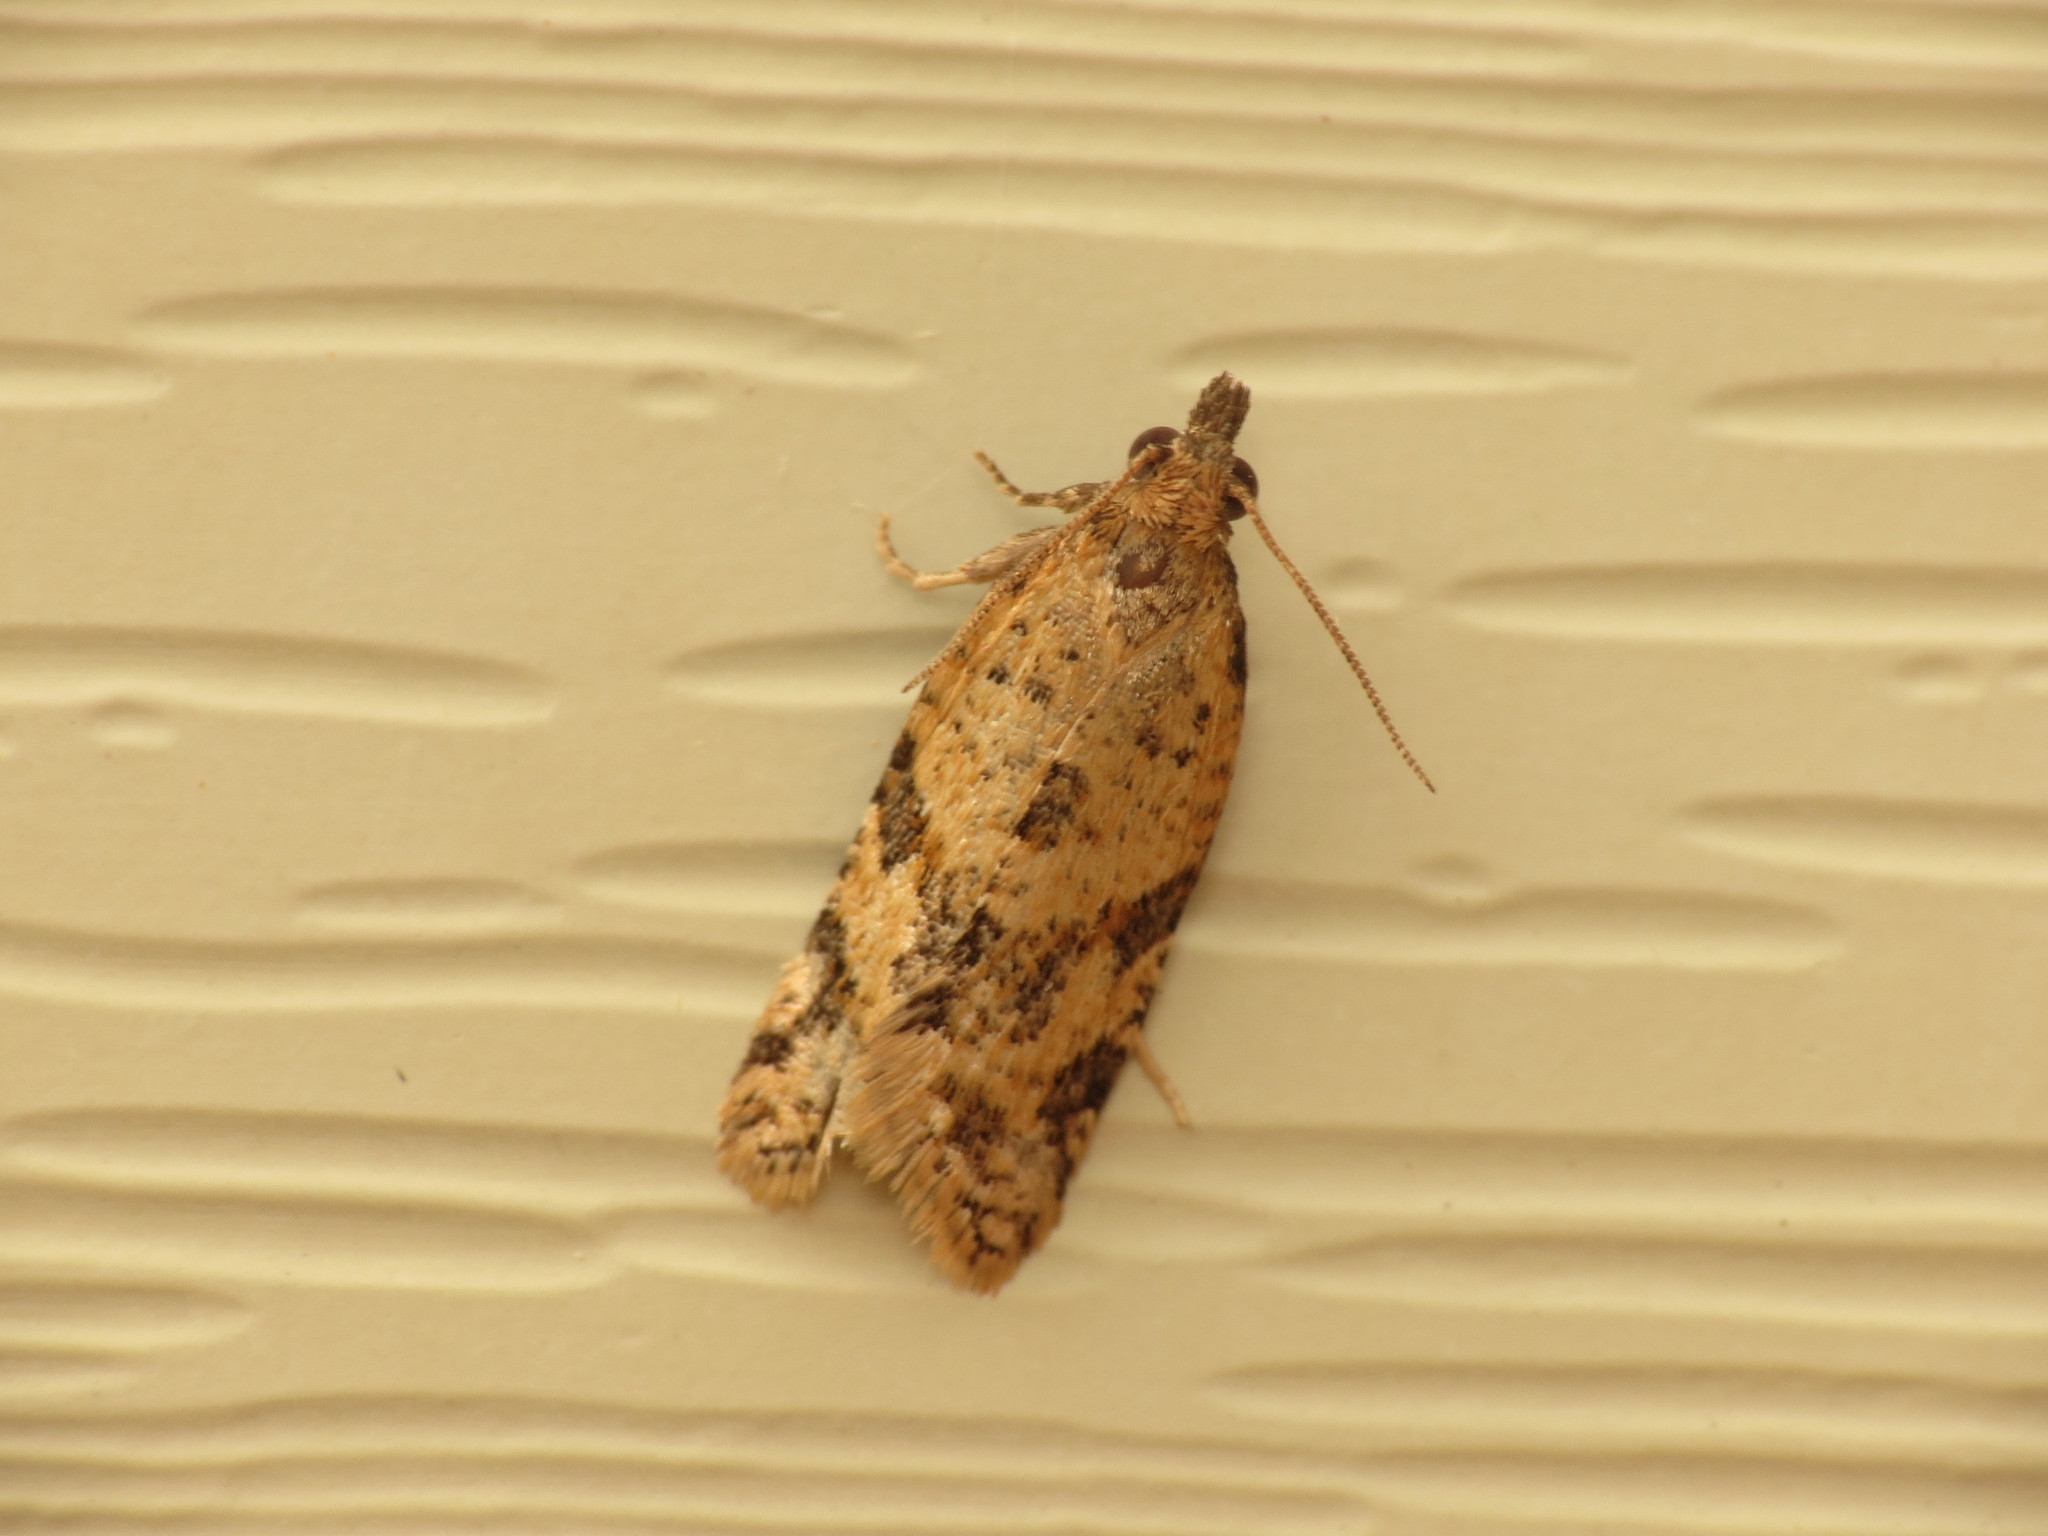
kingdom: Animalia
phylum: Arthropoda
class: Insecta
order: Lepidoptera
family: Tortricidae
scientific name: Tortricidae
